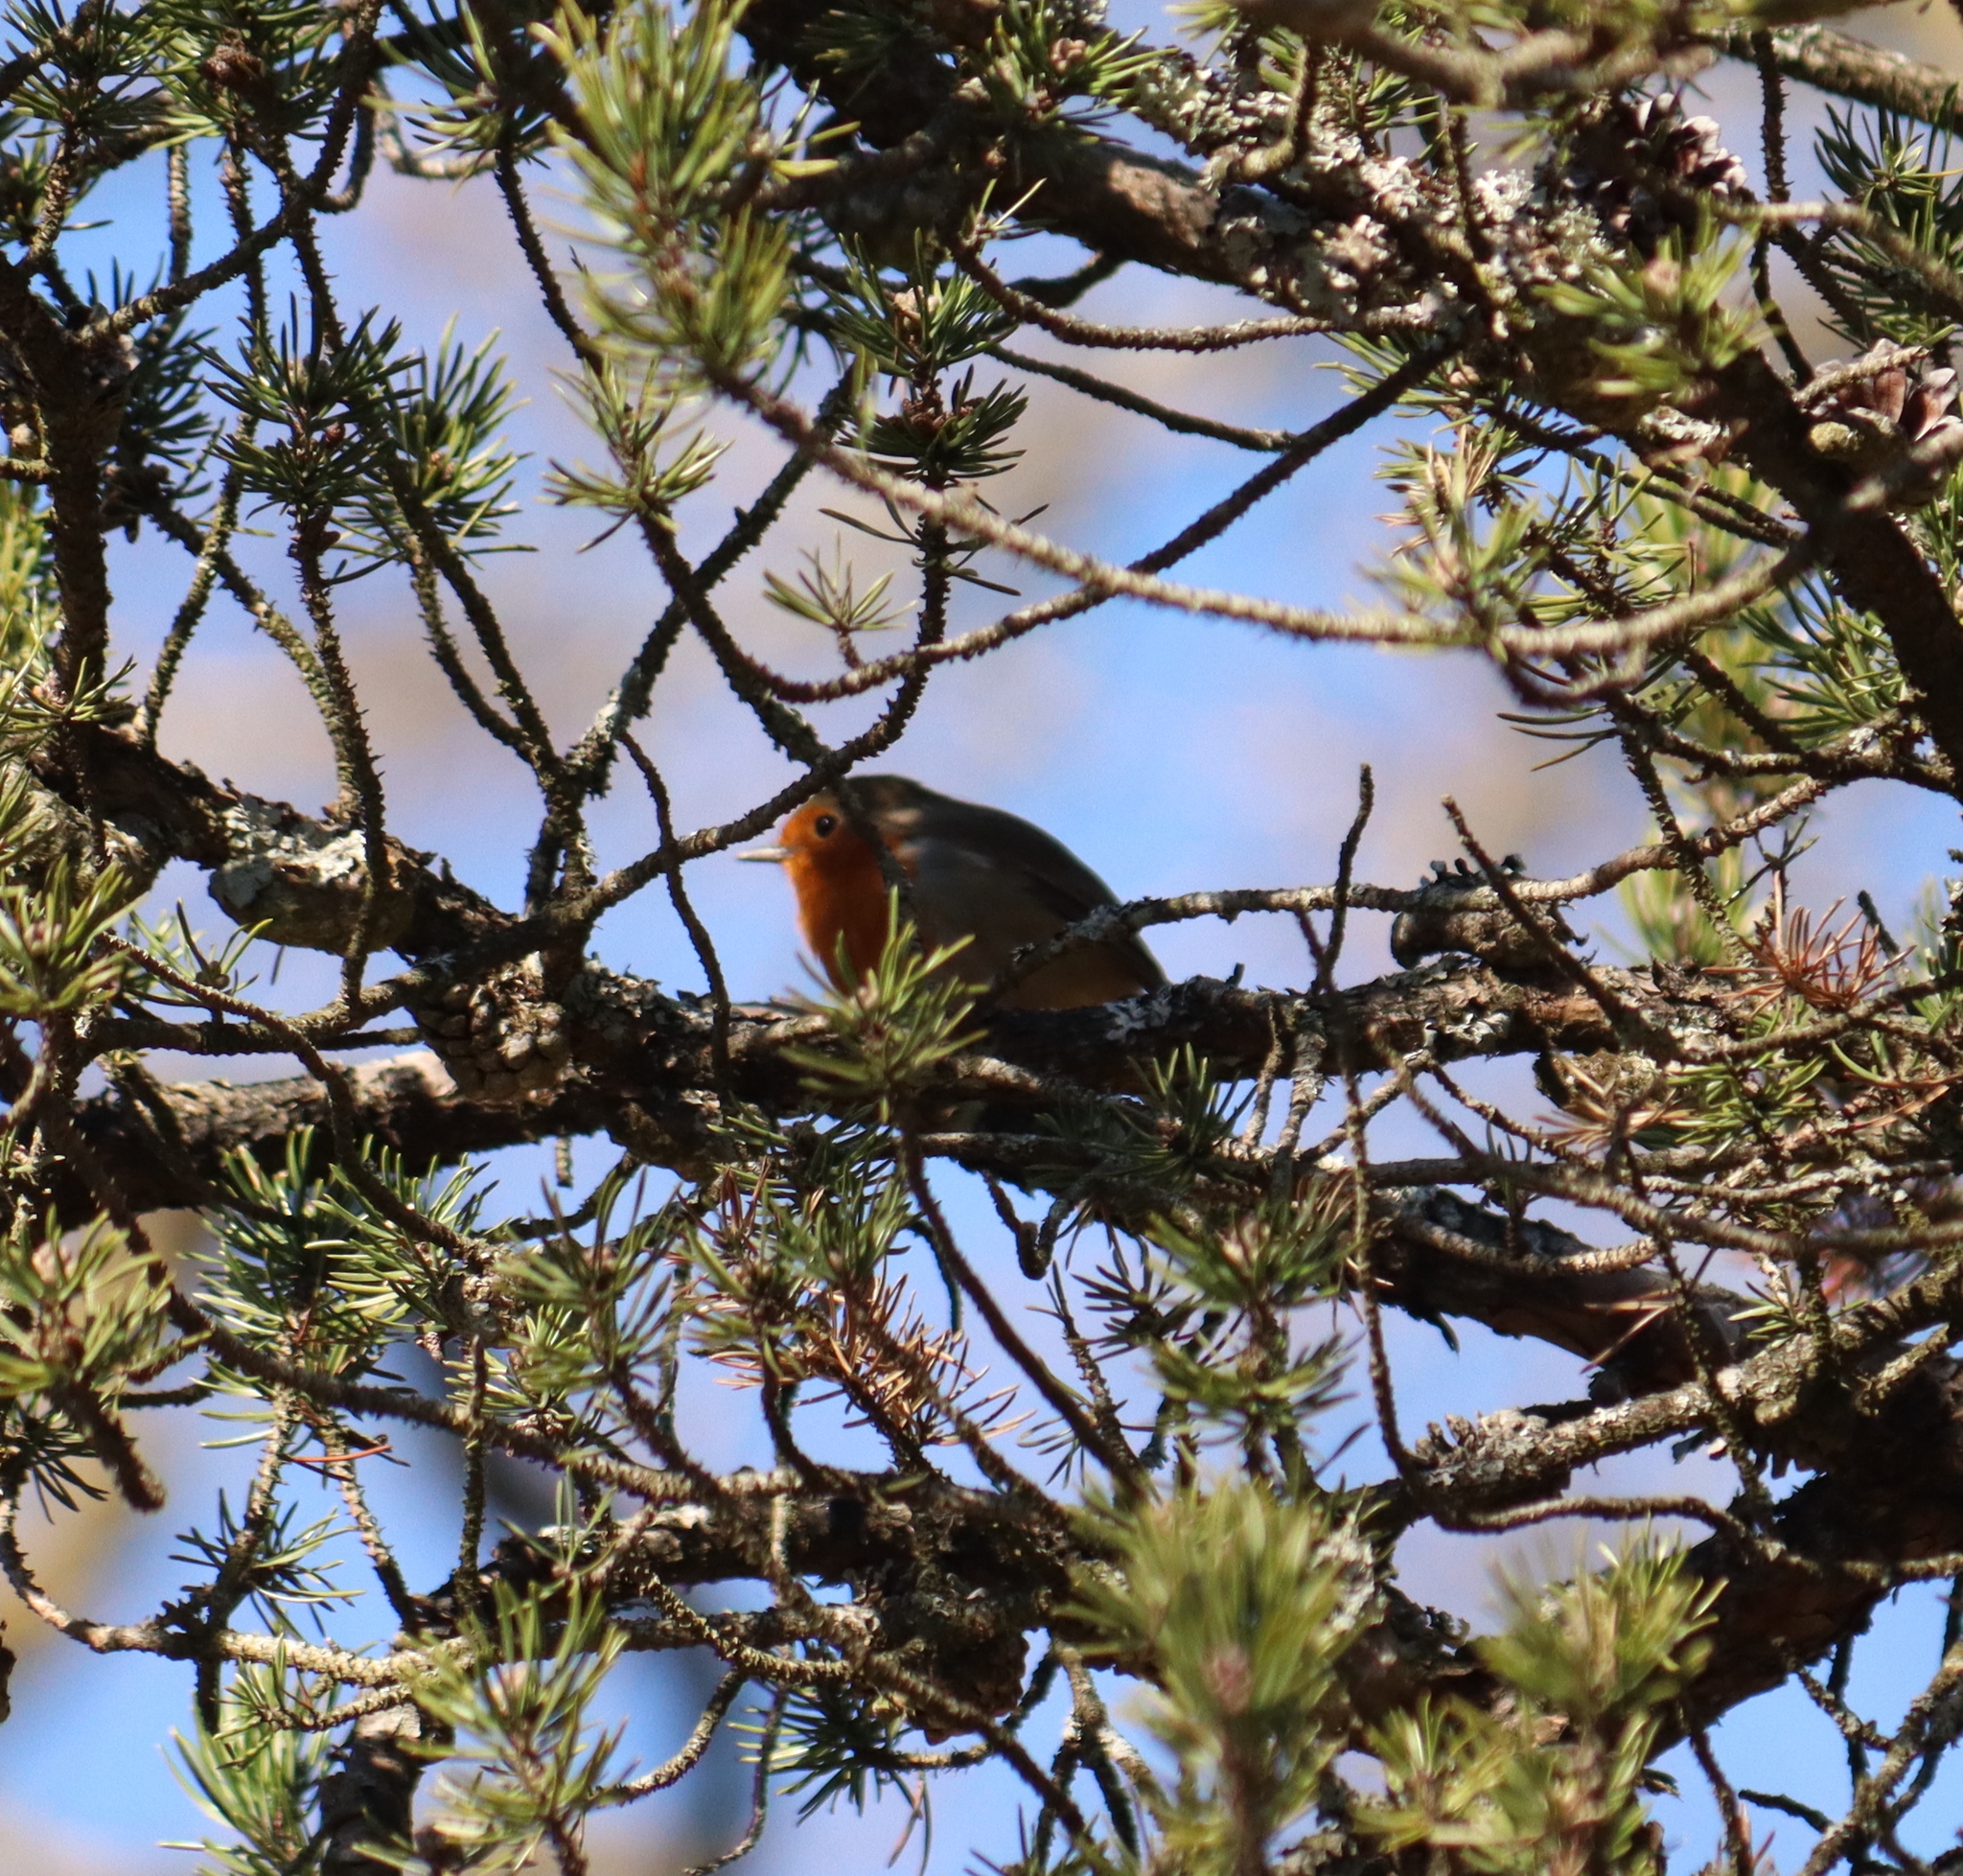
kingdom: Animalia
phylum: Chordata
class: Aves
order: Passeriformes
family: Muscicapidae
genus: Erithacus
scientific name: Erithacus rubecula
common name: European robin
